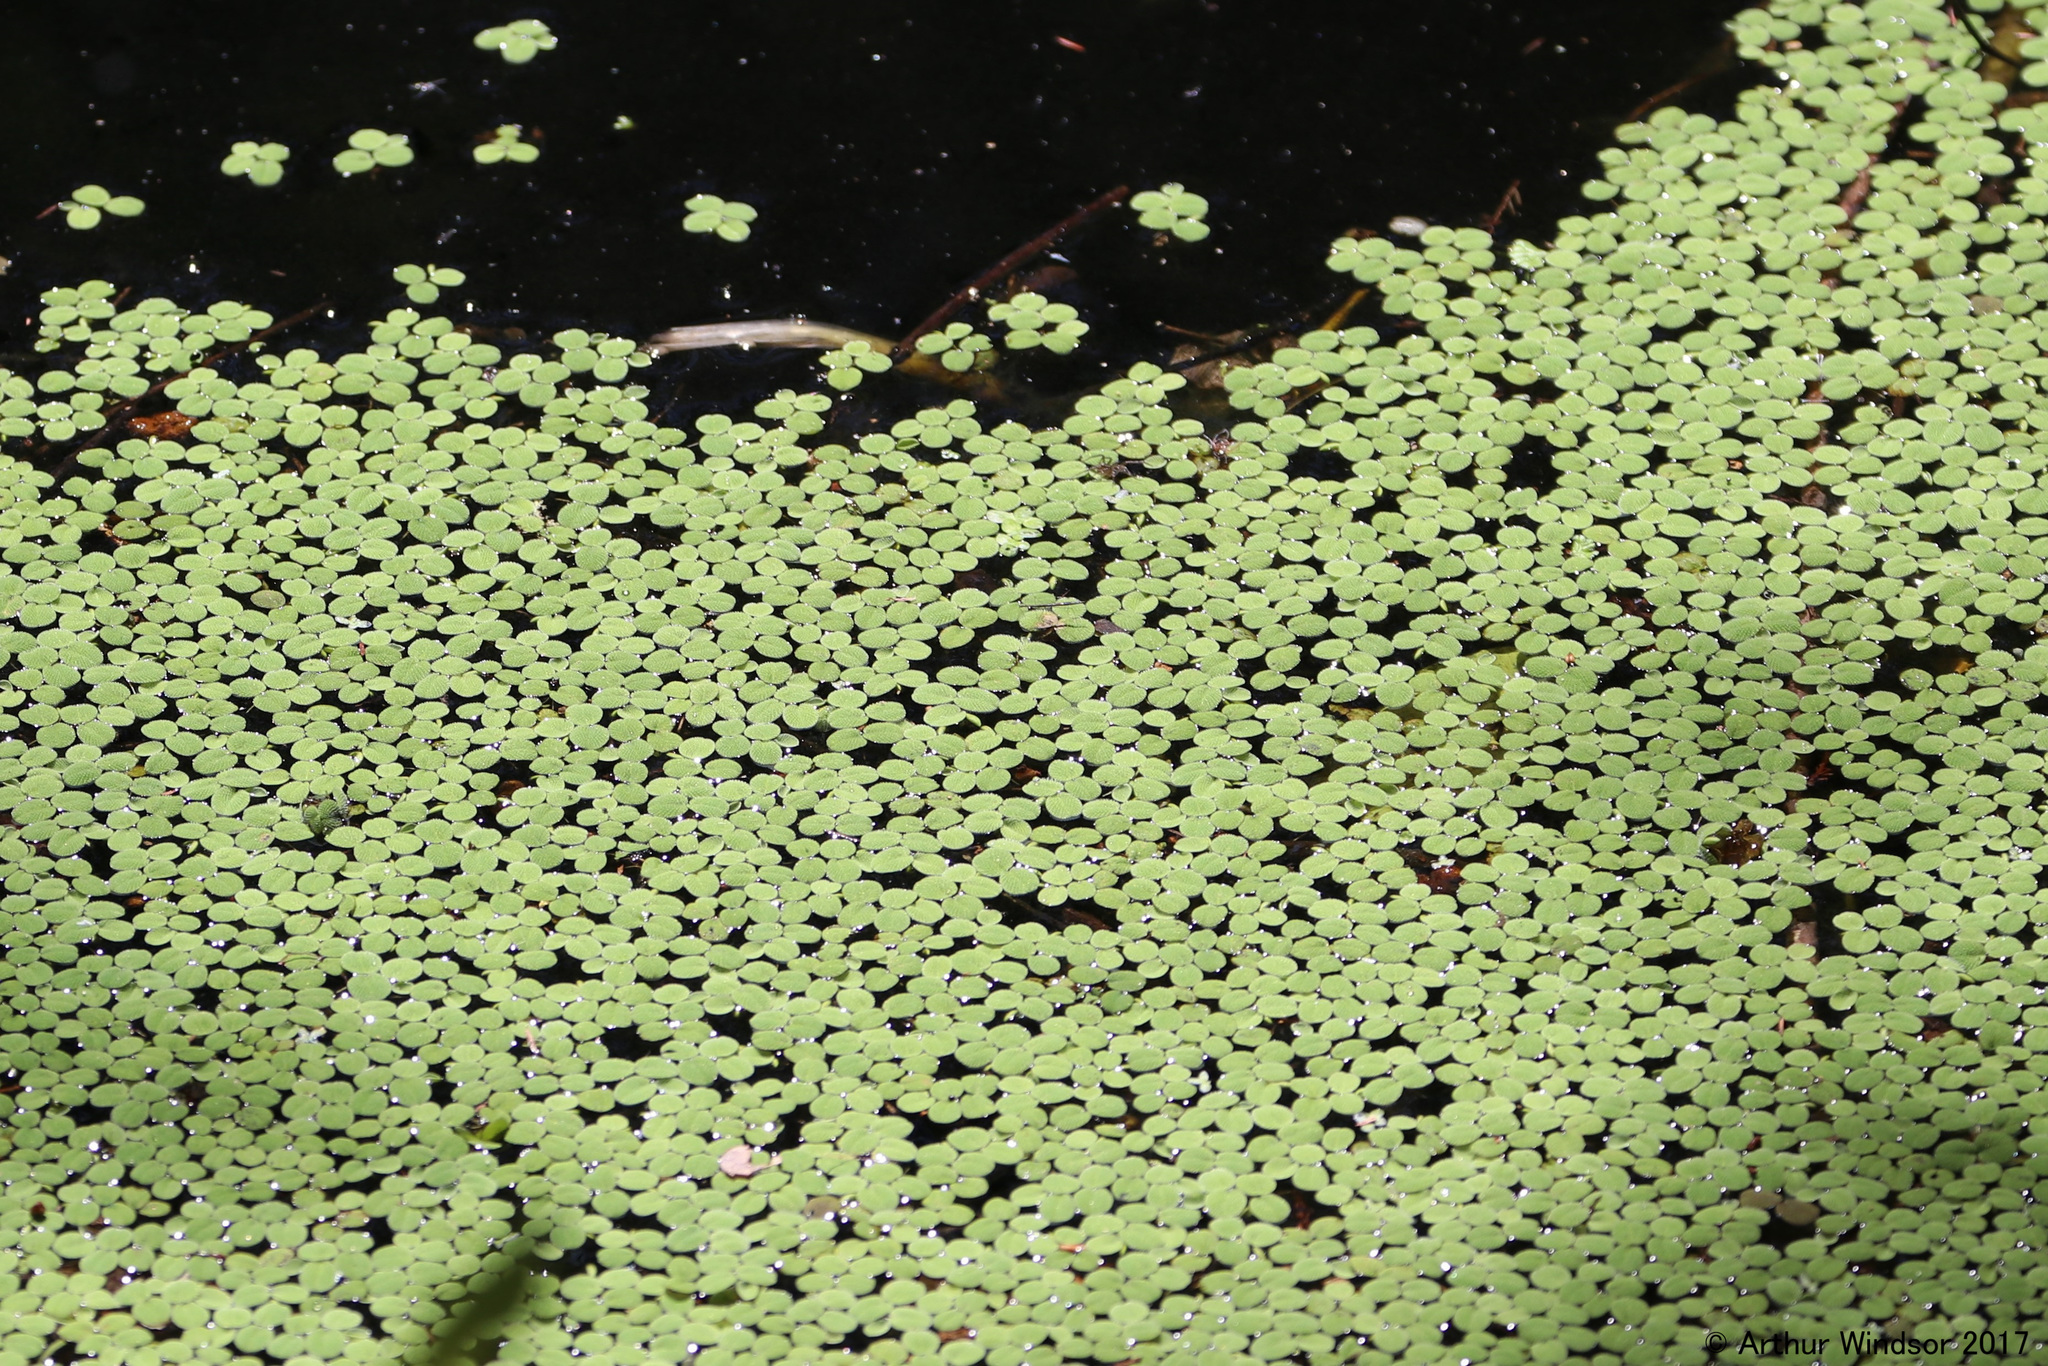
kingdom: Plantae
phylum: Tracheophyta
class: Polypodiopsida
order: Salviniales
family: Salviniaceae
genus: Salvinia
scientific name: Salvinia minima
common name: Water spangles
